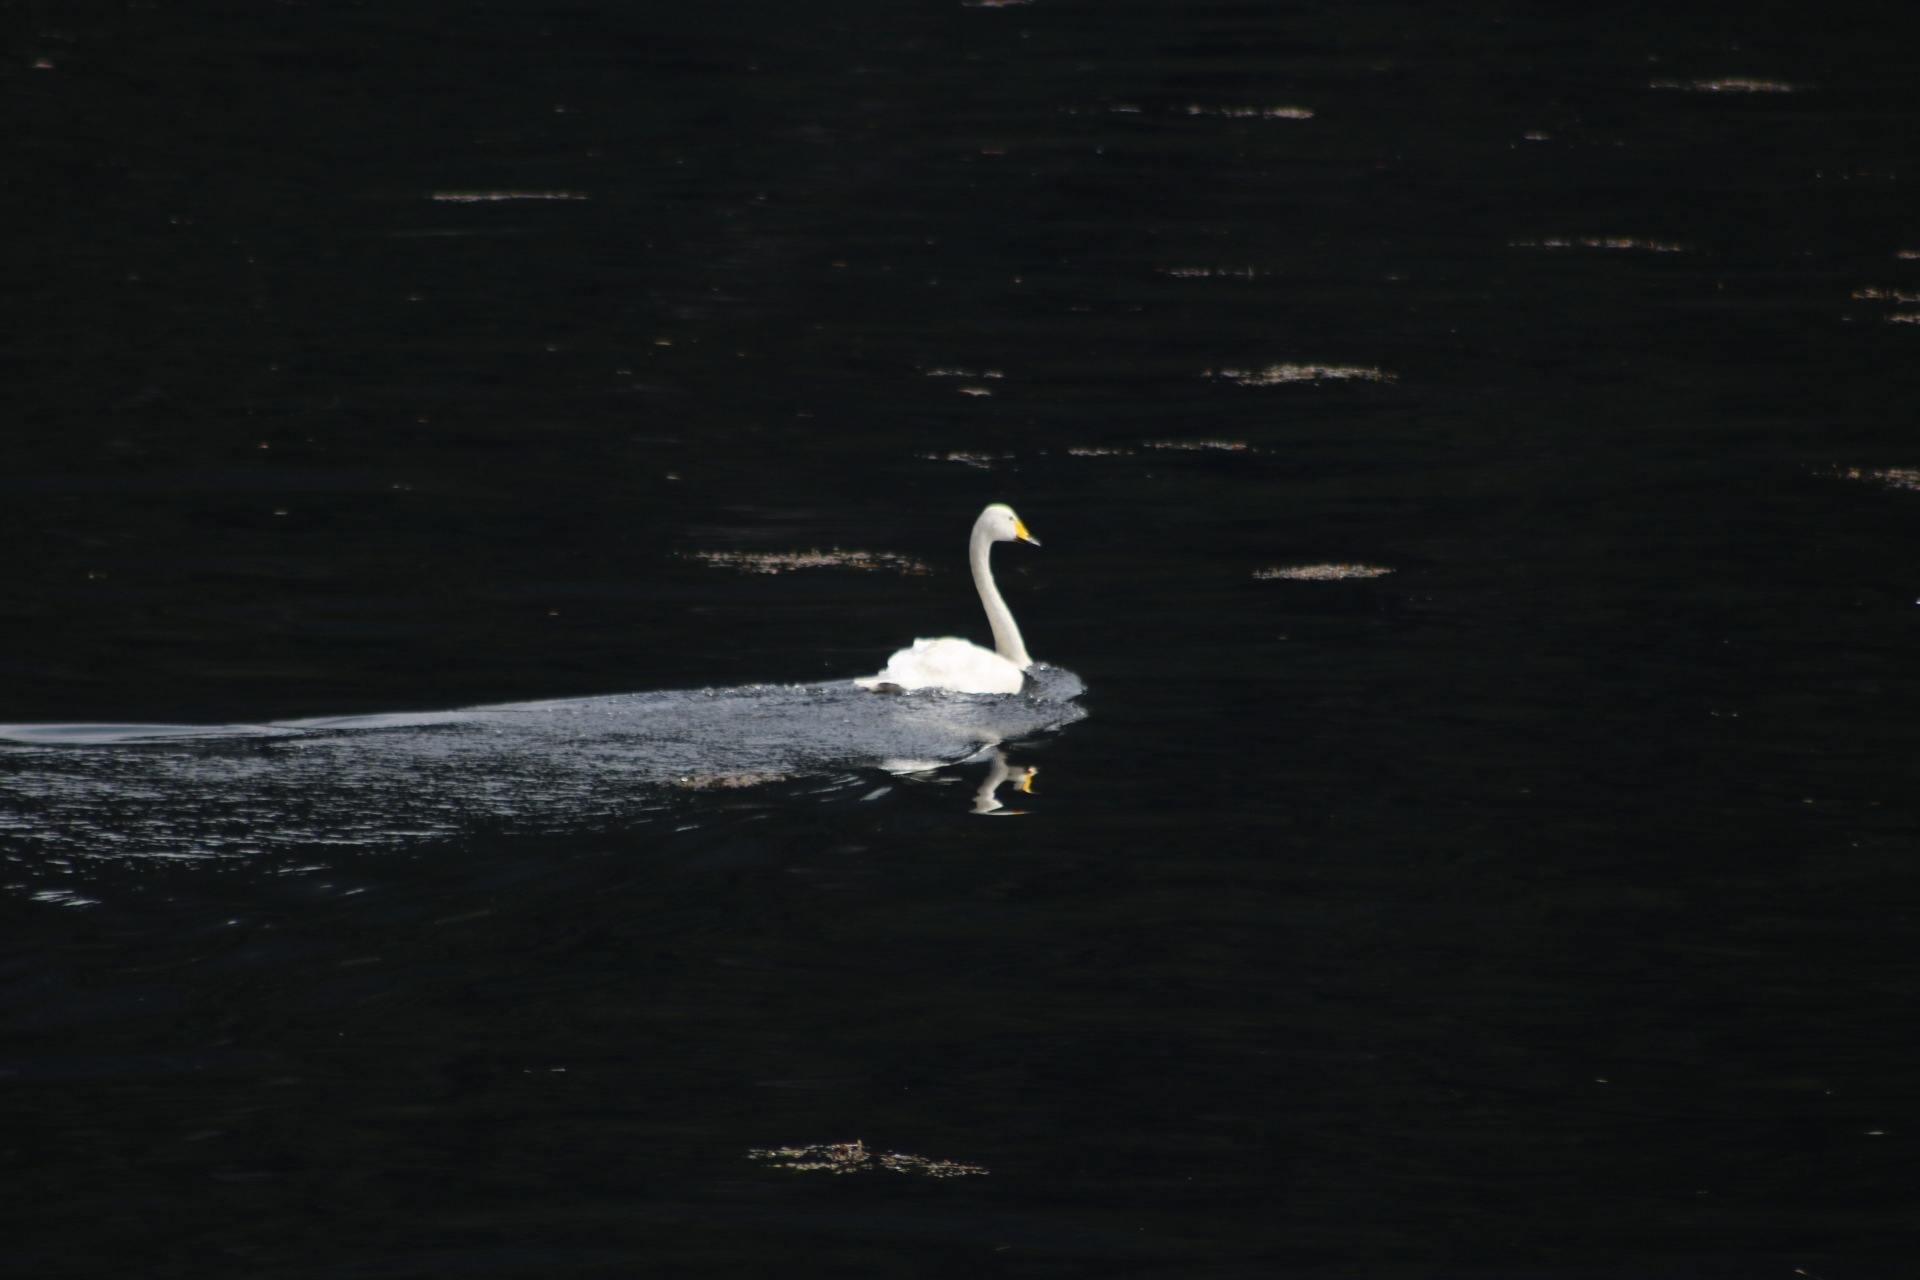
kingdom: Animalia
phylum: Chordata
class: Aves
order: Anseriformes
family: Anatidae
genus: Cygnus
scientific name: Cygnus cygnus
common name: Whooper swan
